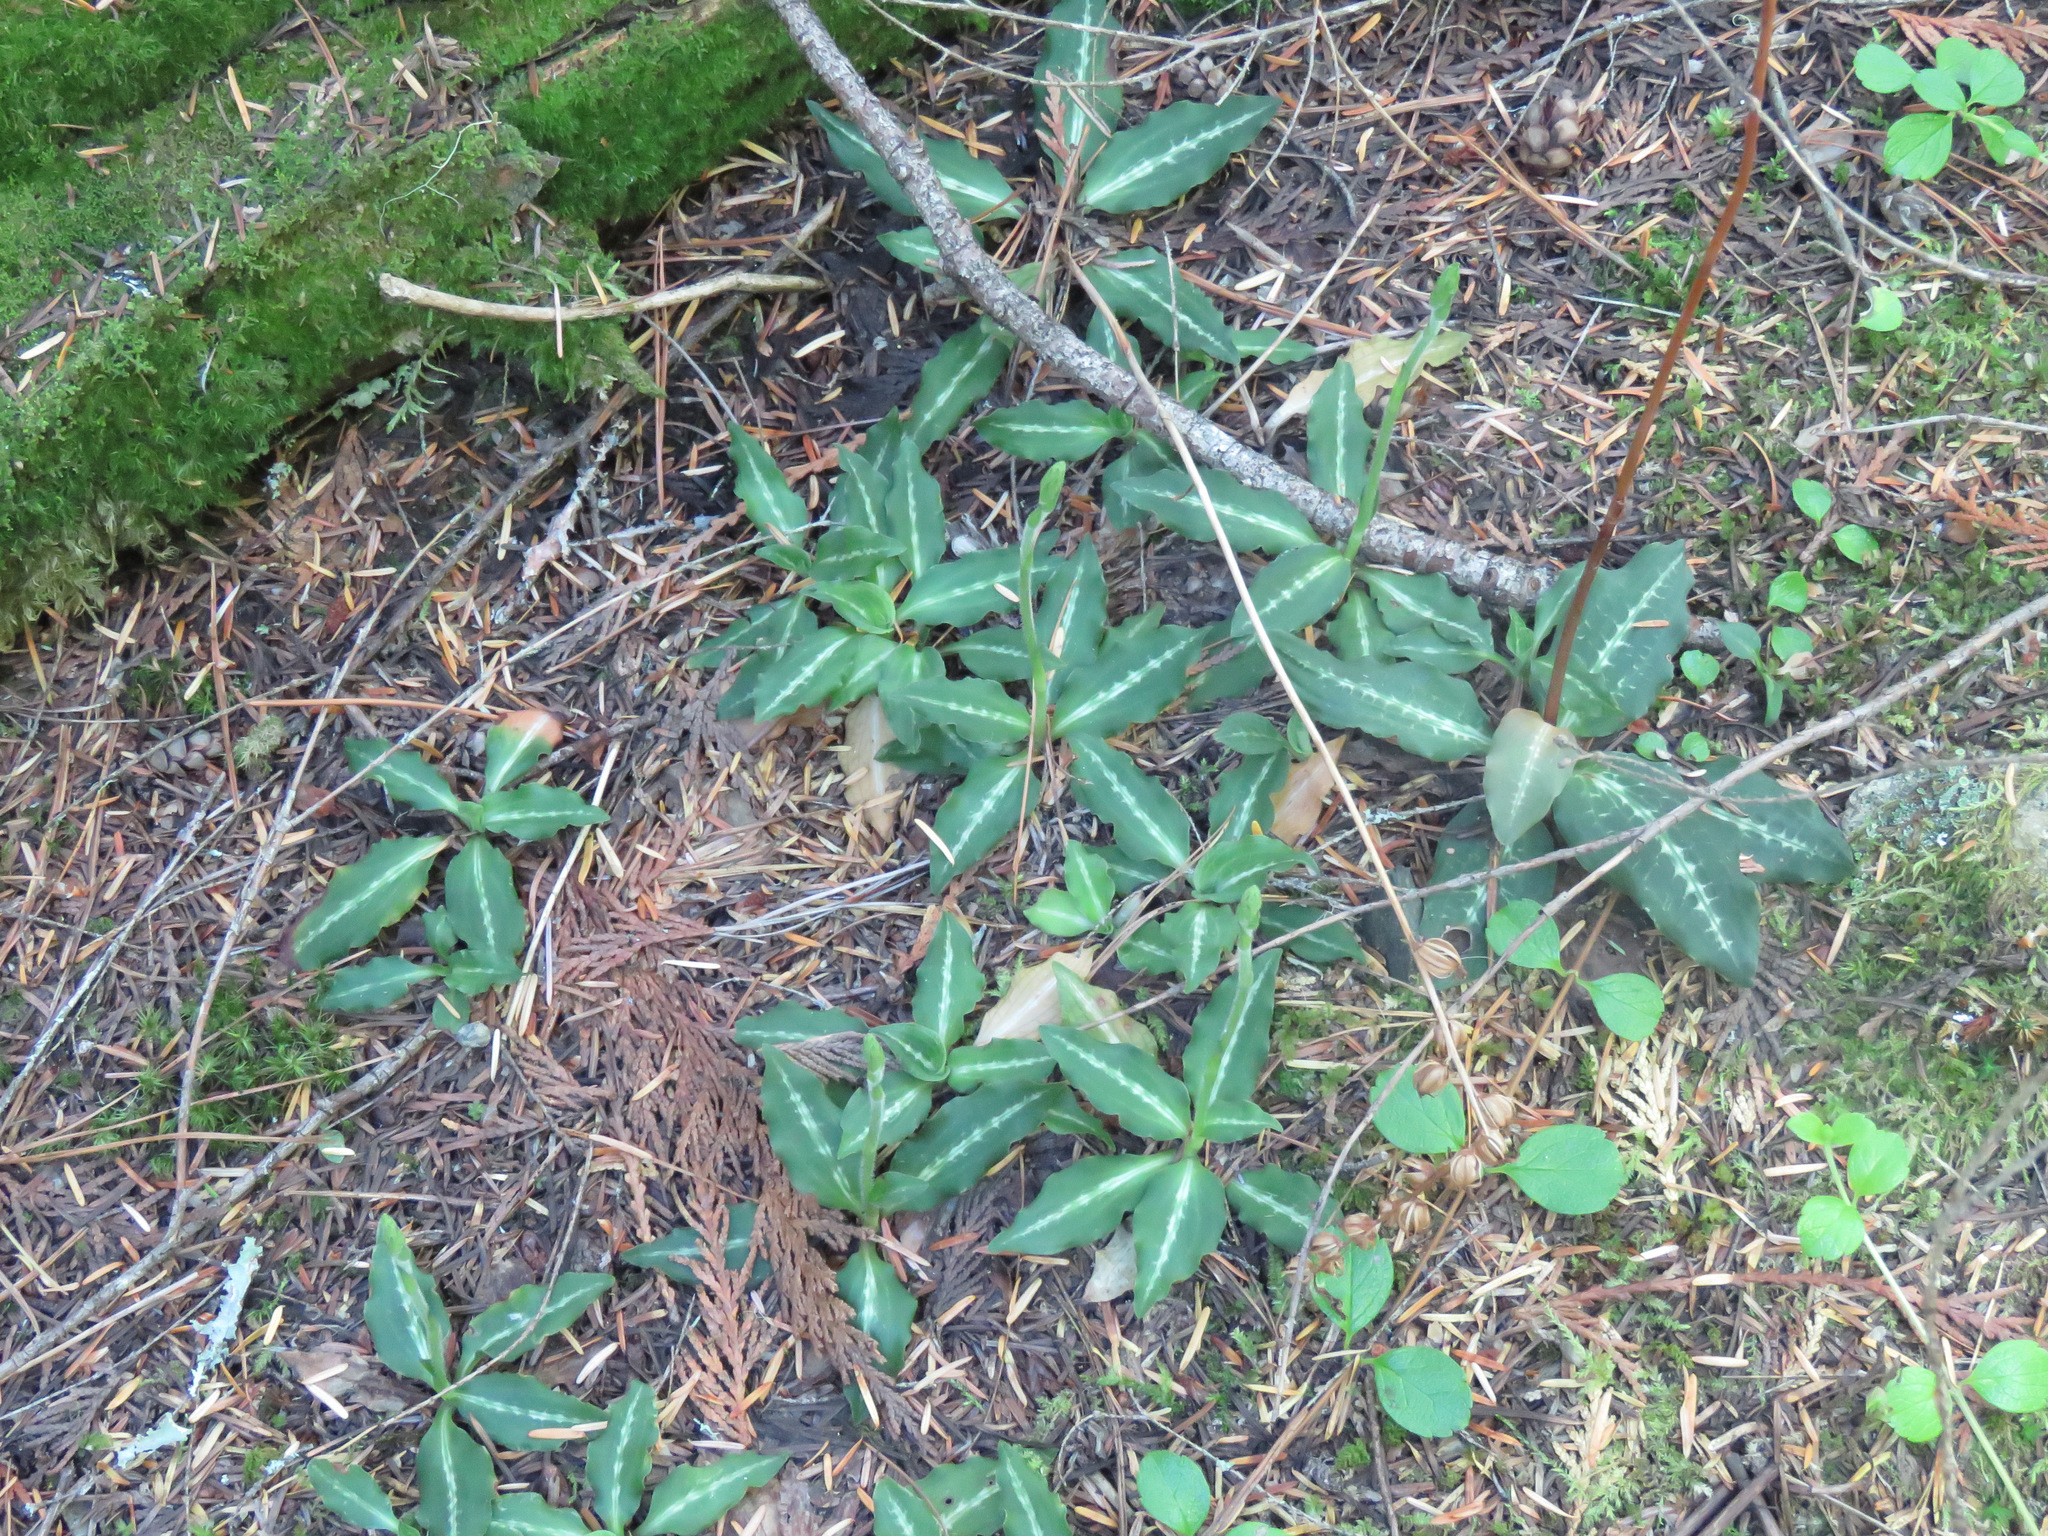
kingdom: Plantae
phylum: Tracheophyta
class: Liliopsida
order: Asparagales
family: Orchidaceae
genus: Goodyera
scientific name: Goodyera oblongifolia
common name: Giant rattlesnake-plantain
